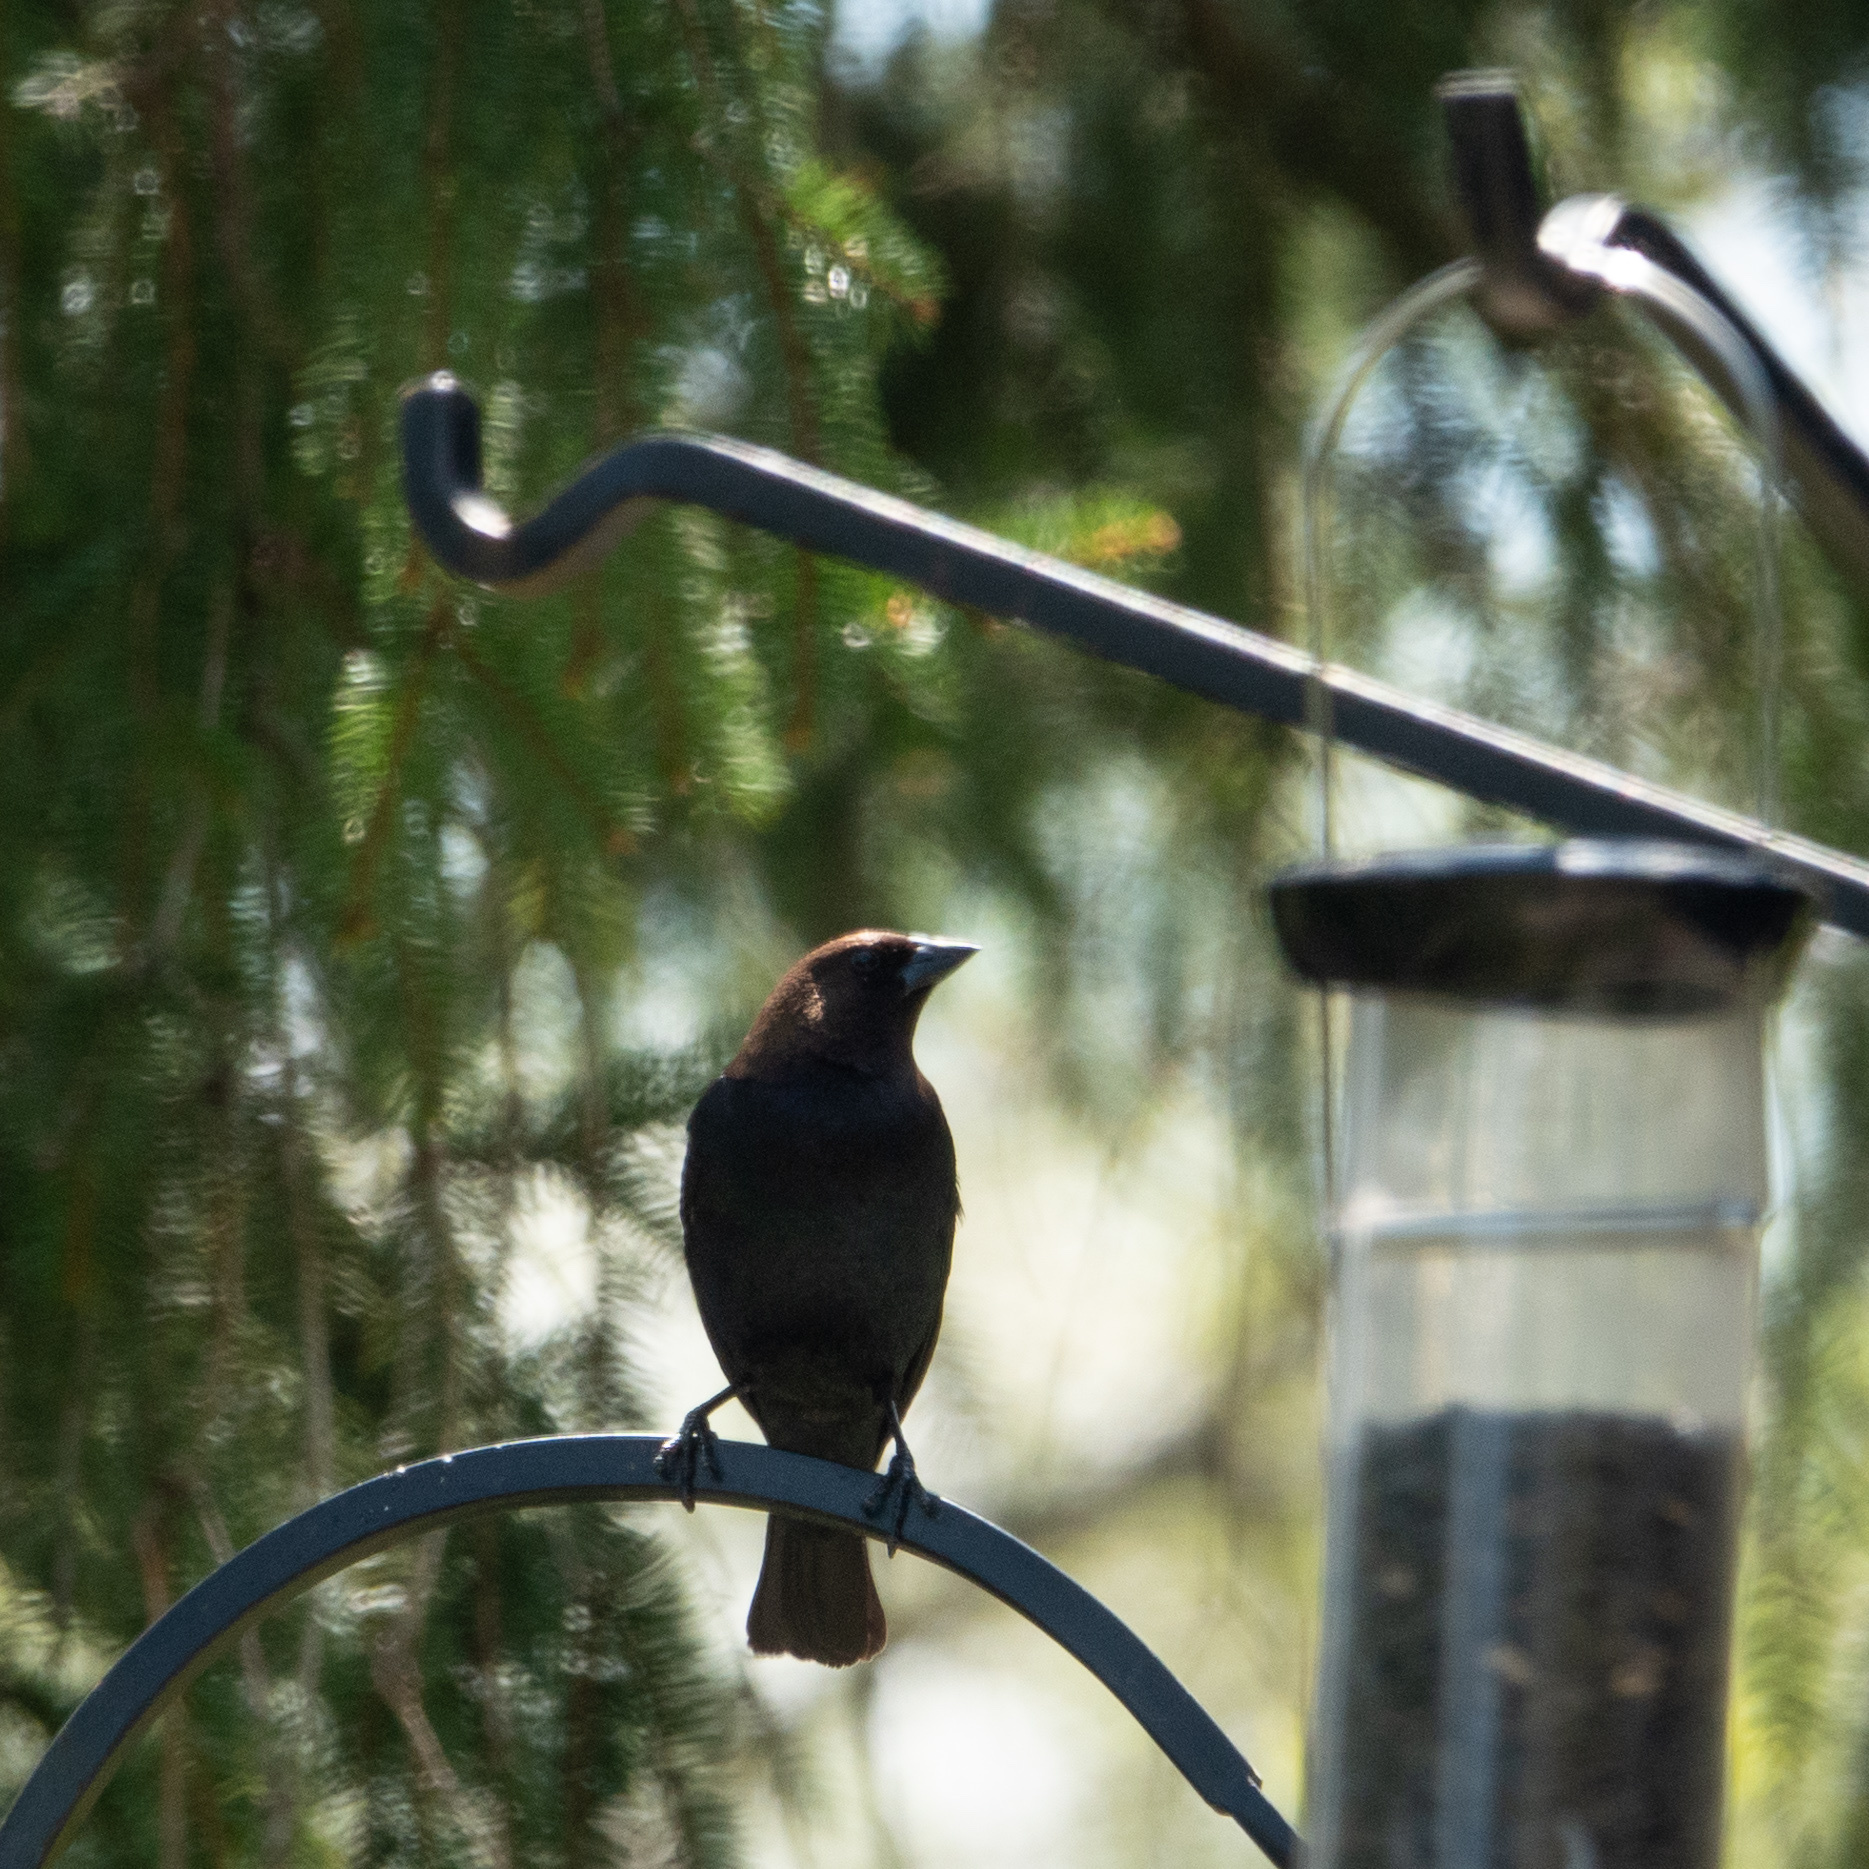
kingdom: Animalia
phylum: Chordata
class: Aves
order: Passeriformes
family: Icteridae
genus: Molothrus
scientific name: Molothrus ater
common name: Brown-headed cowbird
